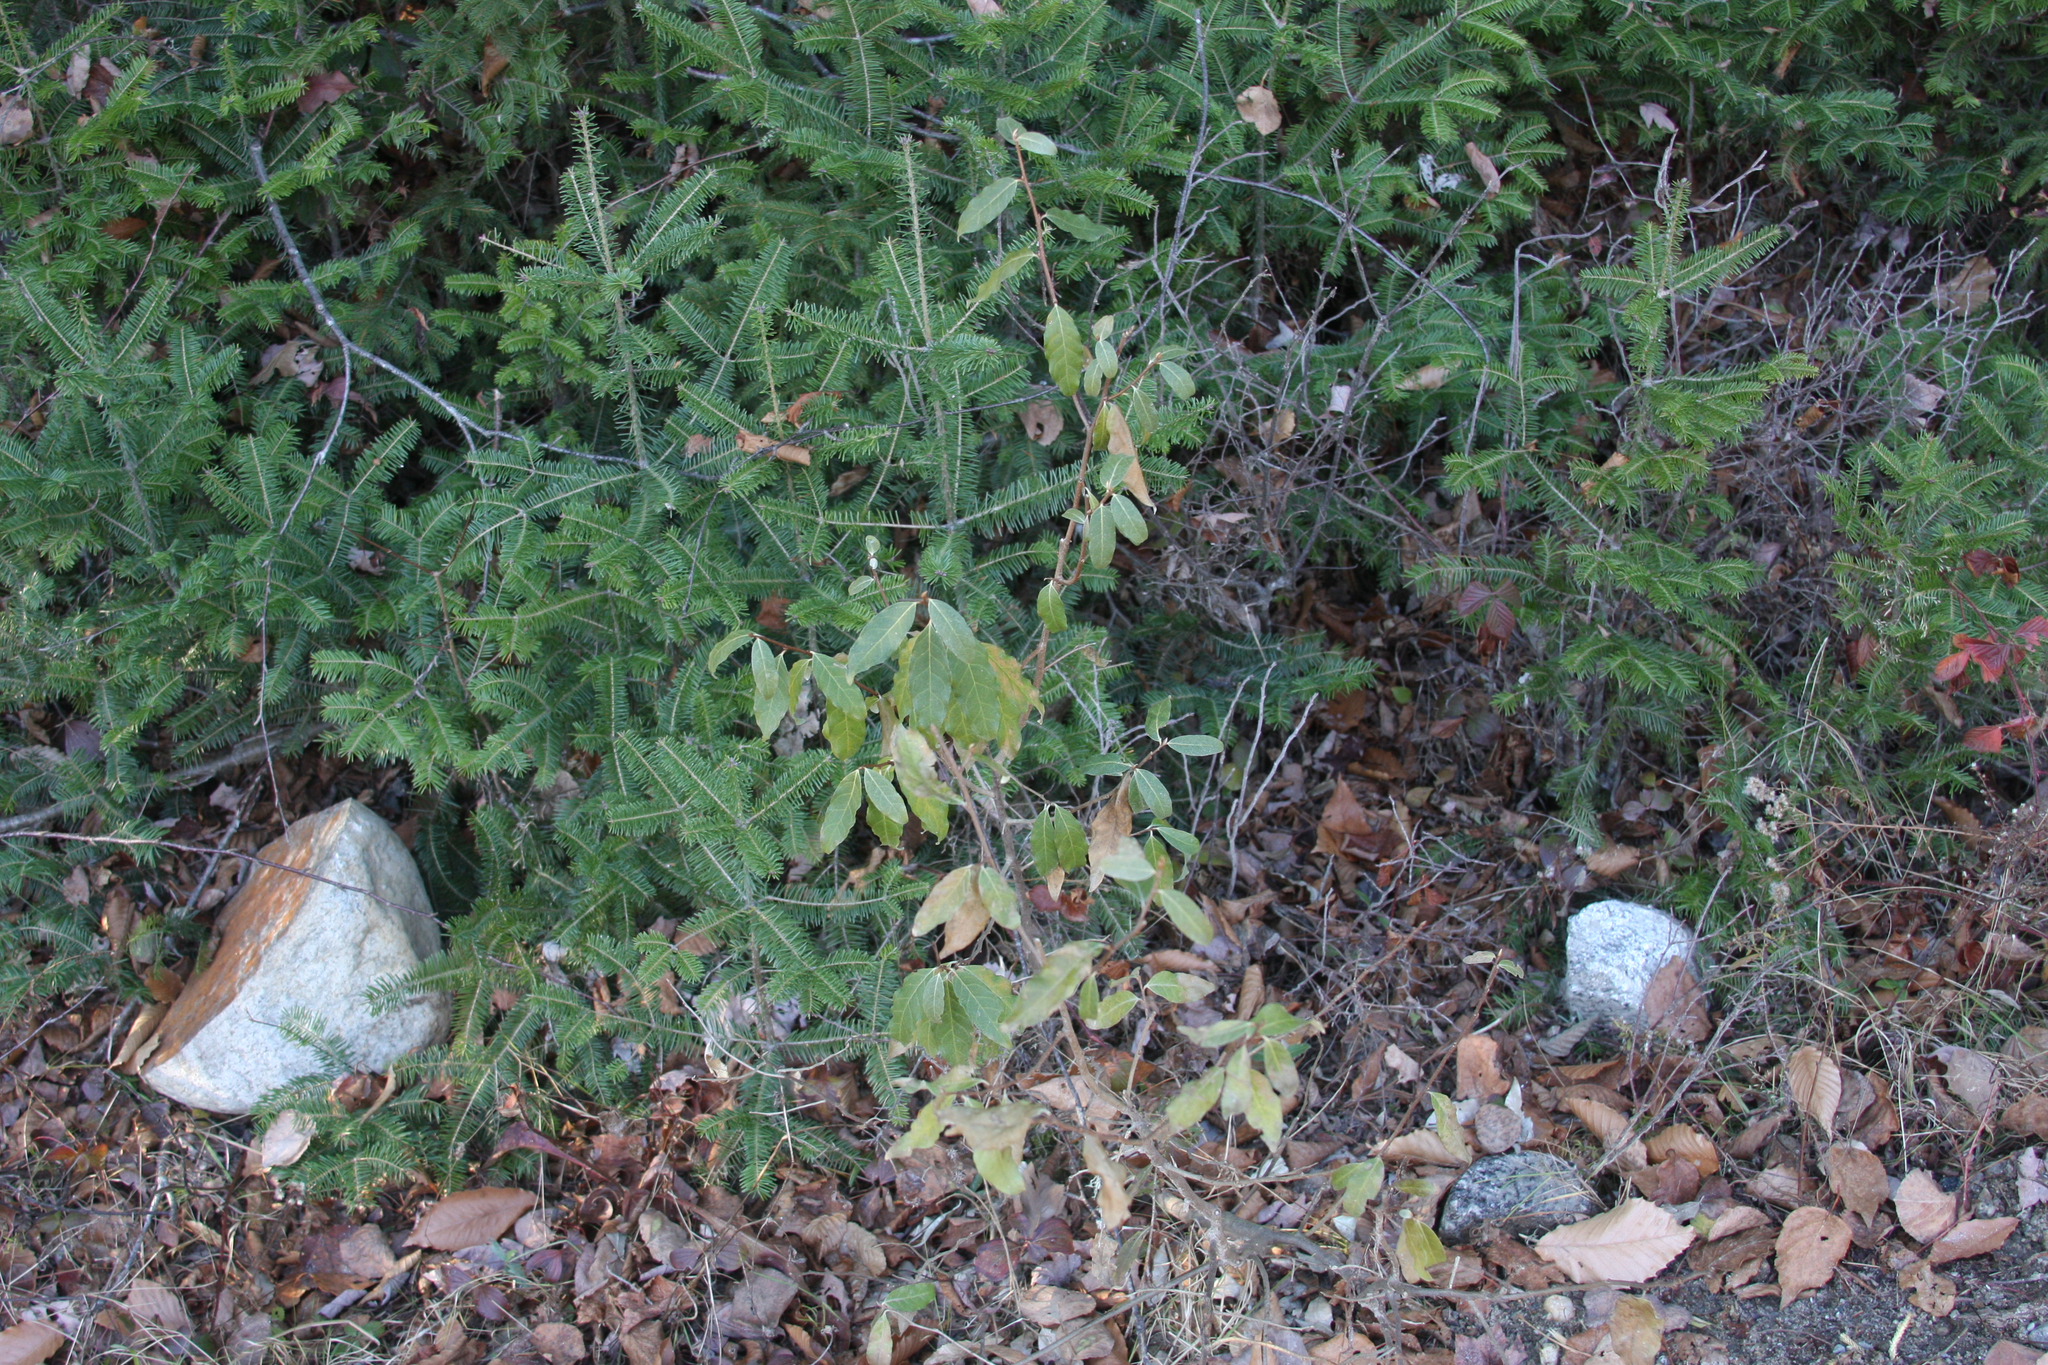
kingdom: Plantae
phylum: Tracheophyta
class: Magnoliopsida
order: Rosales
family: Elaeagnaceae
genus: Elaeagnus
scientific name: Elaeagnus umbellata
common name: Autumn olive
